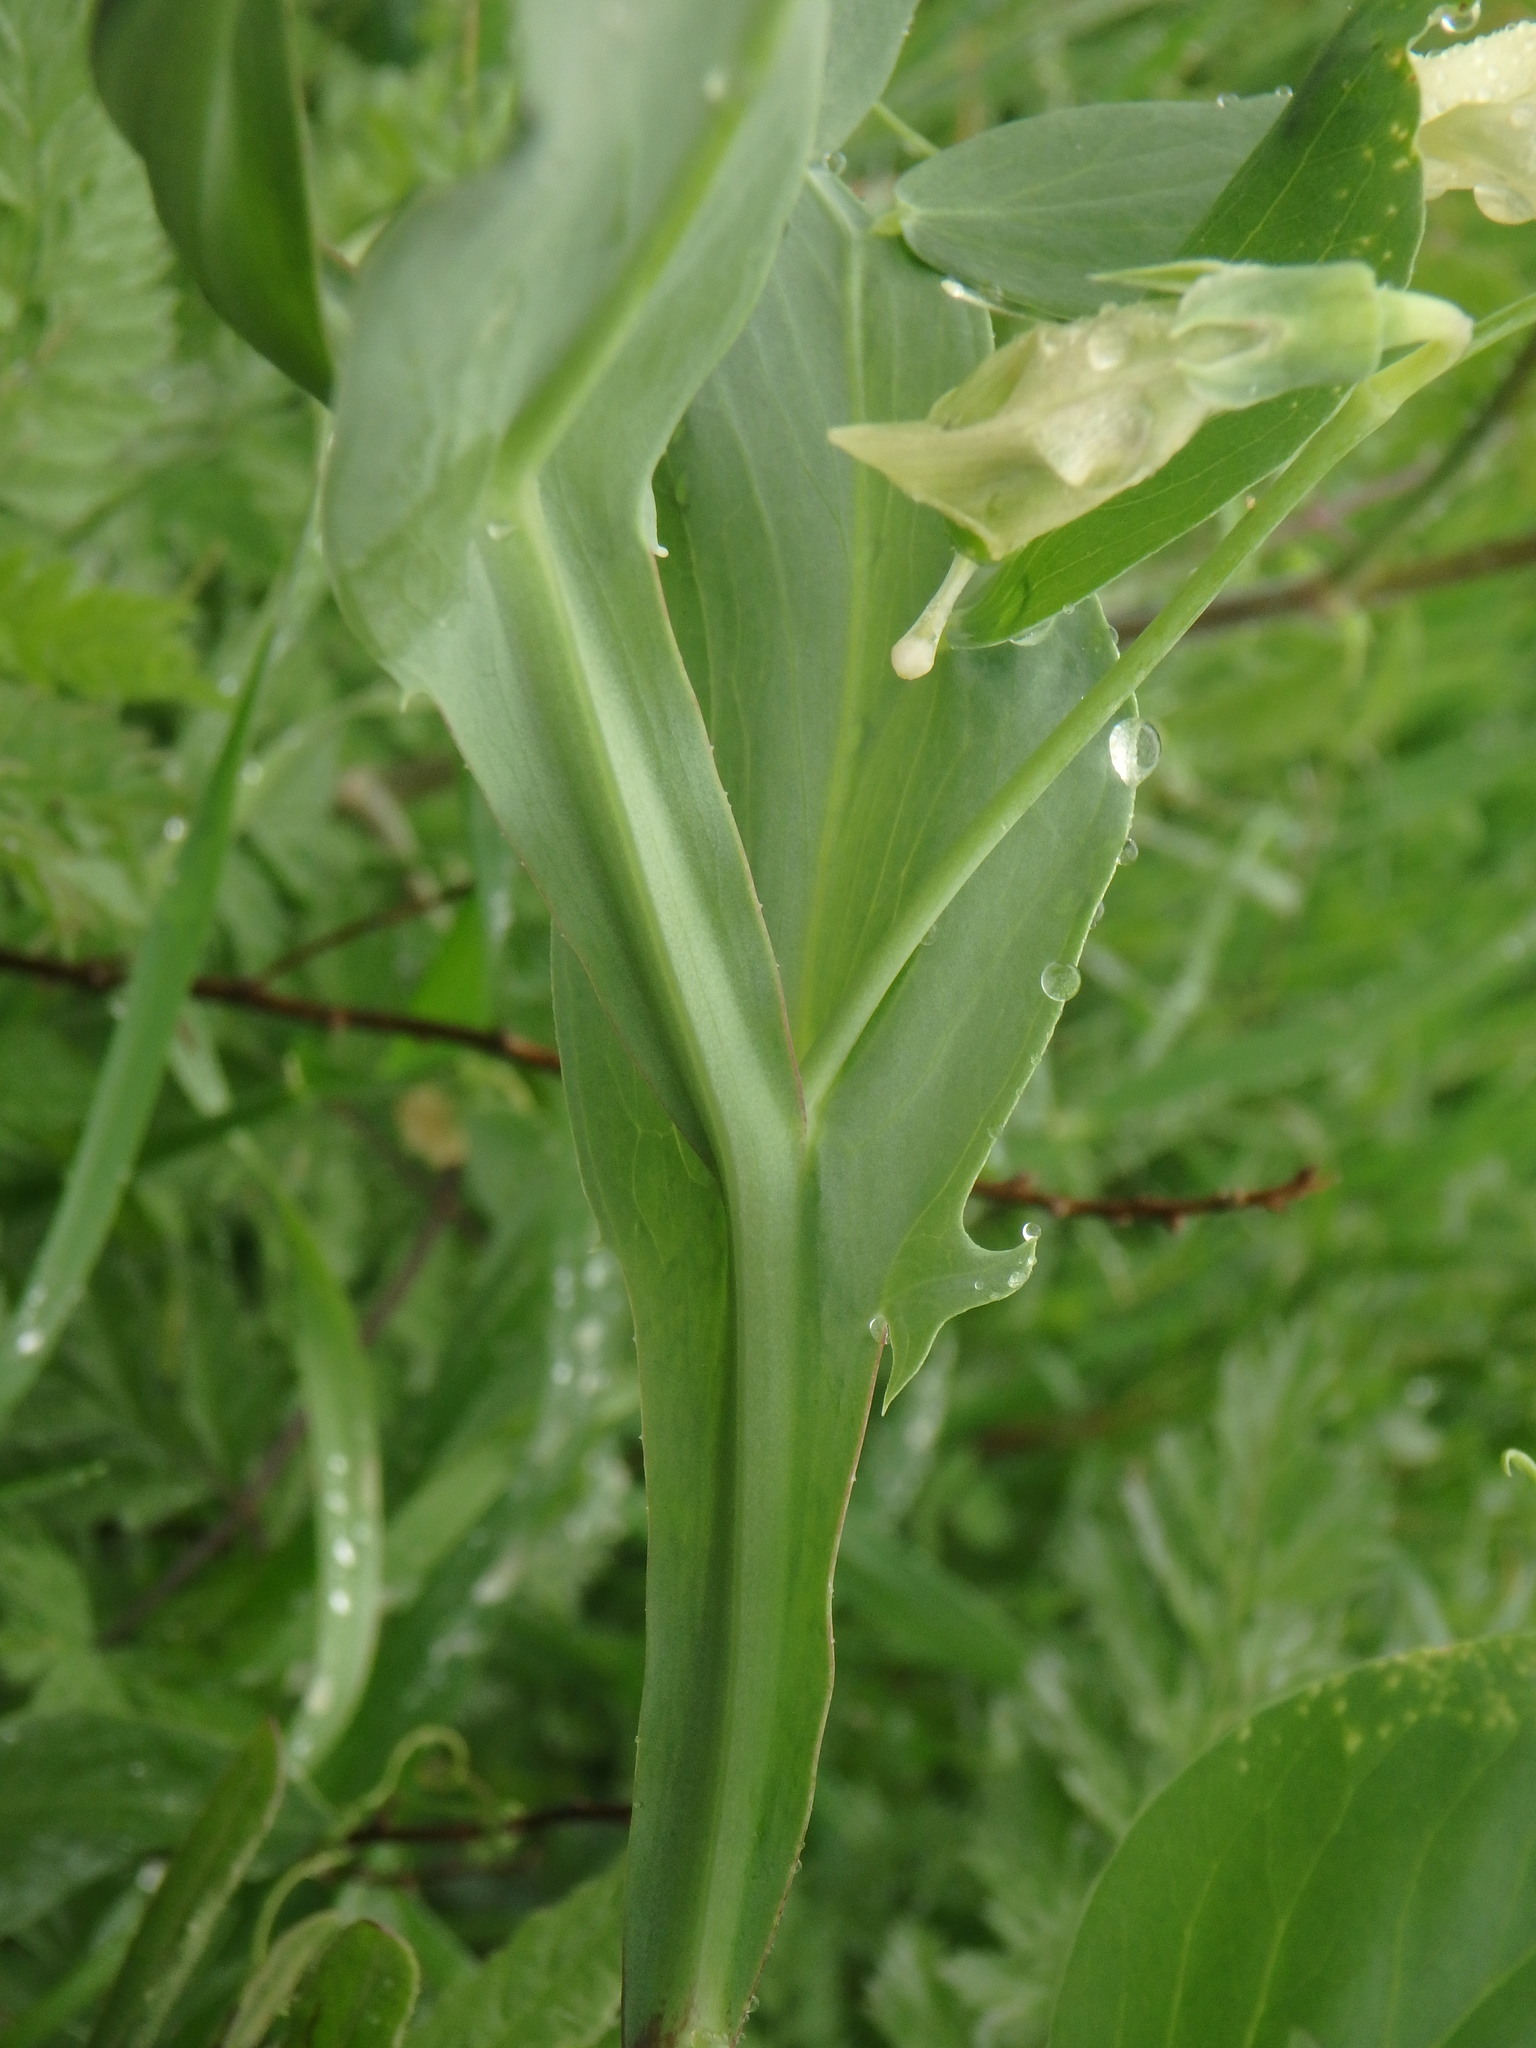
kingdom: Plantae
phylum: Tracheophyta
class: Magnoliopsida
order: Fabales
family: Fabaceae
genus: Lathyrus
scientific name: Lathyrus ochrus
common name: Winged vetchling
